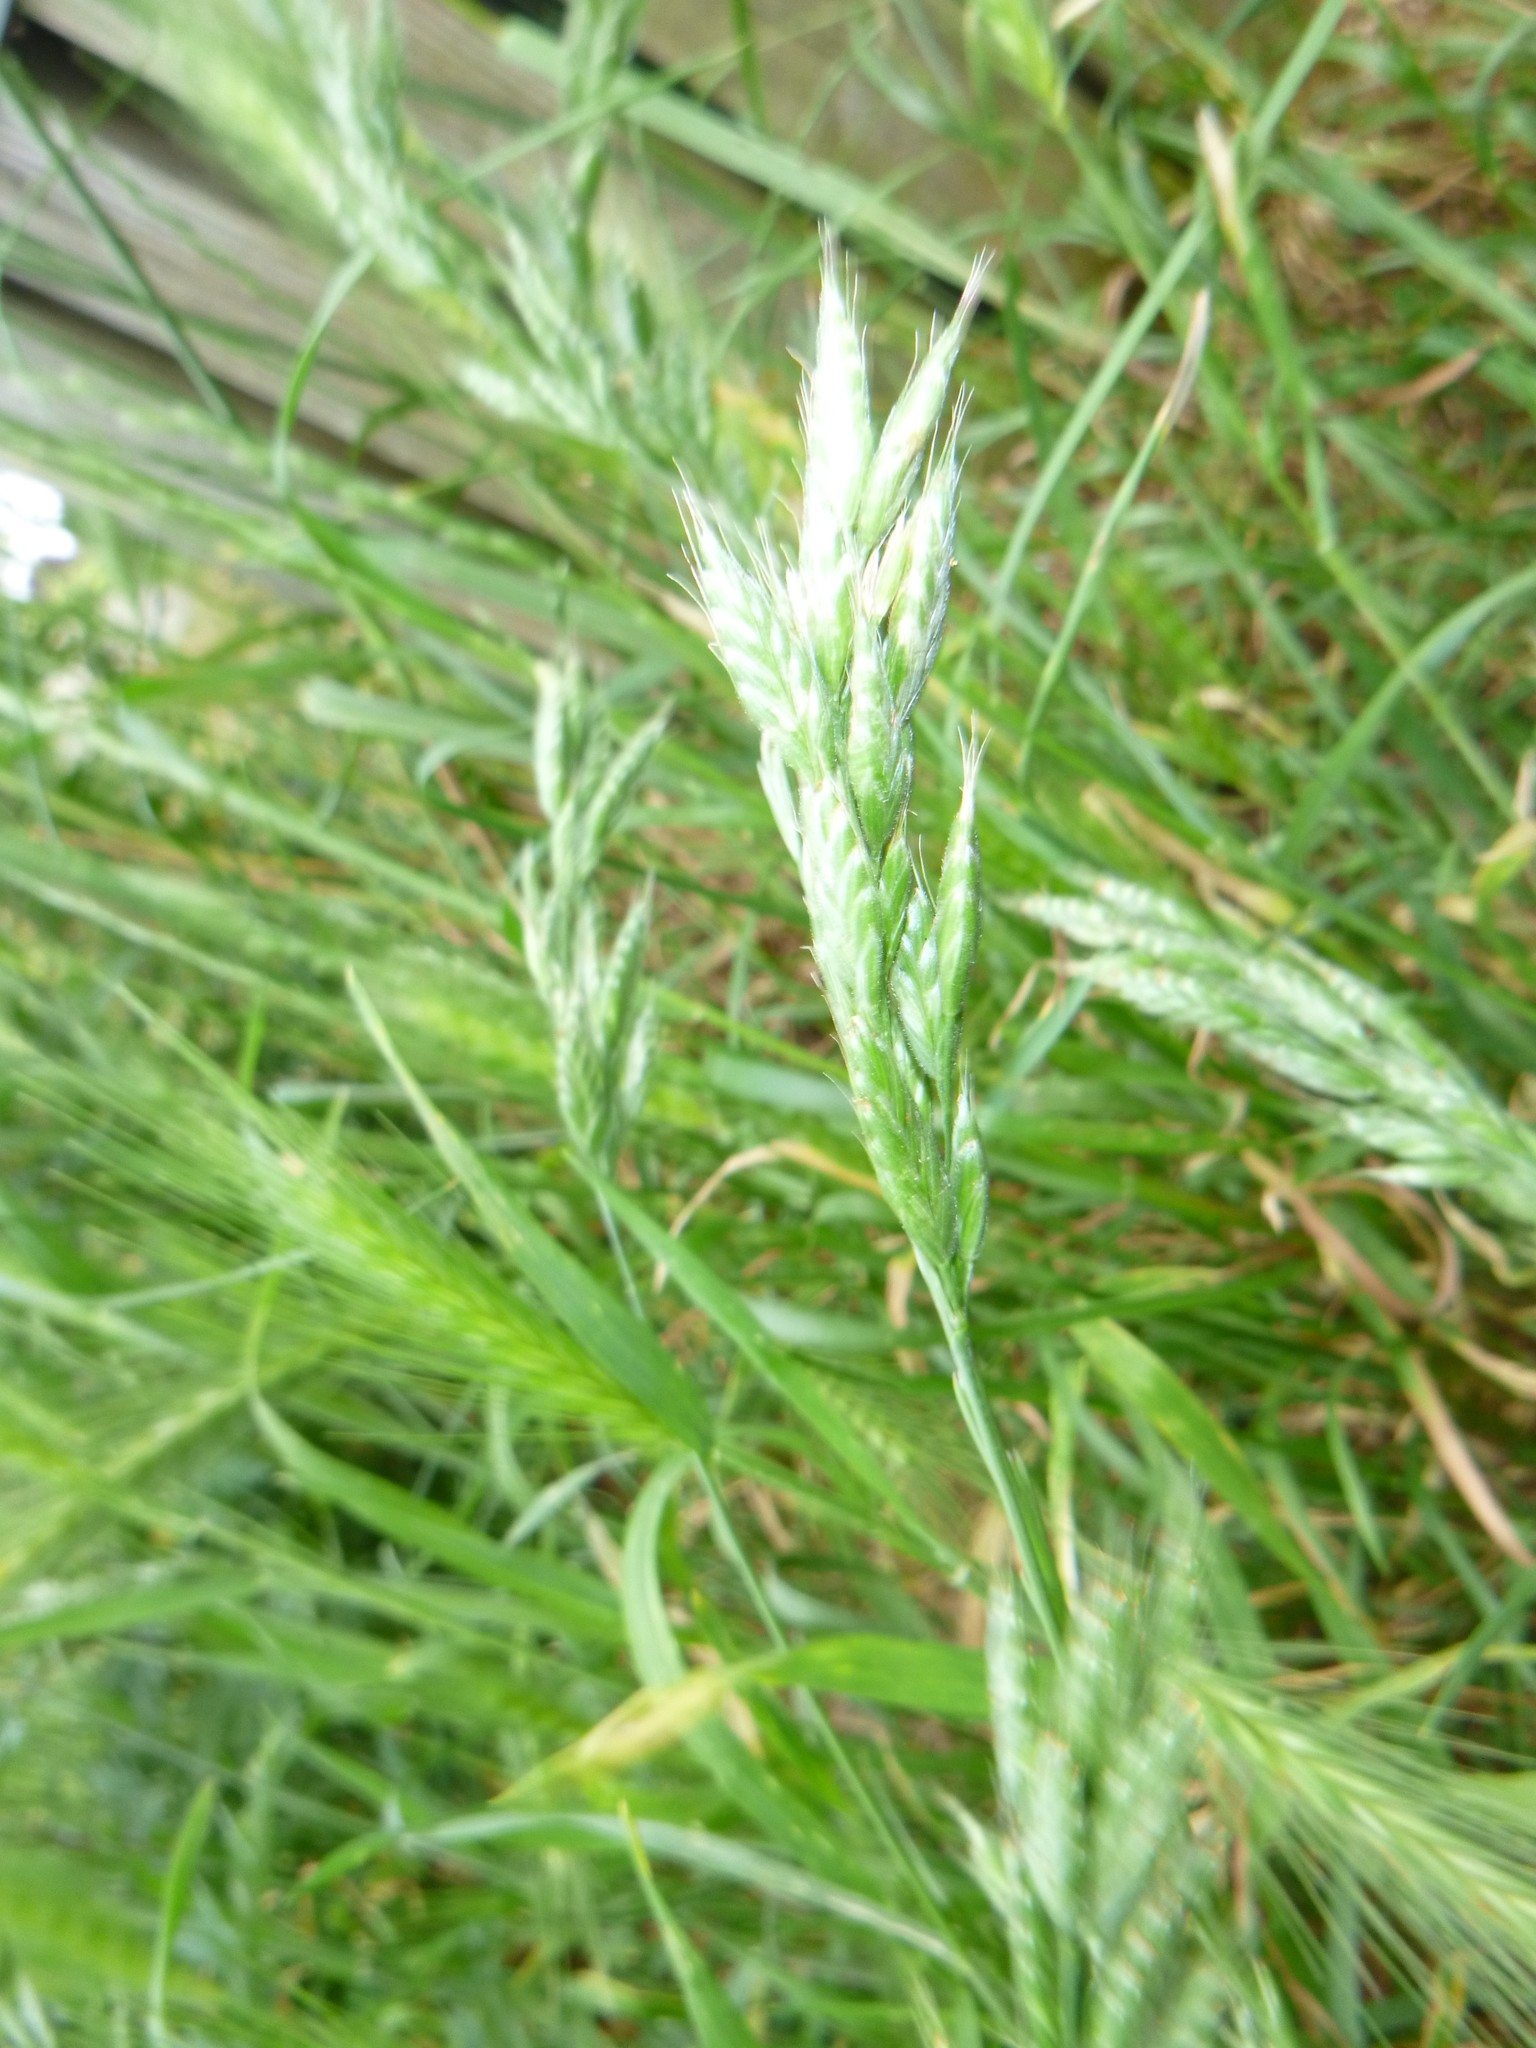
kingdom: Plantae
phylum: Tracheophyta
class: Liliopsida
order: Poales
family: Poaceae
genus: Bromus
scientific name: Bromus hordeaceus
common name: Soft brome
